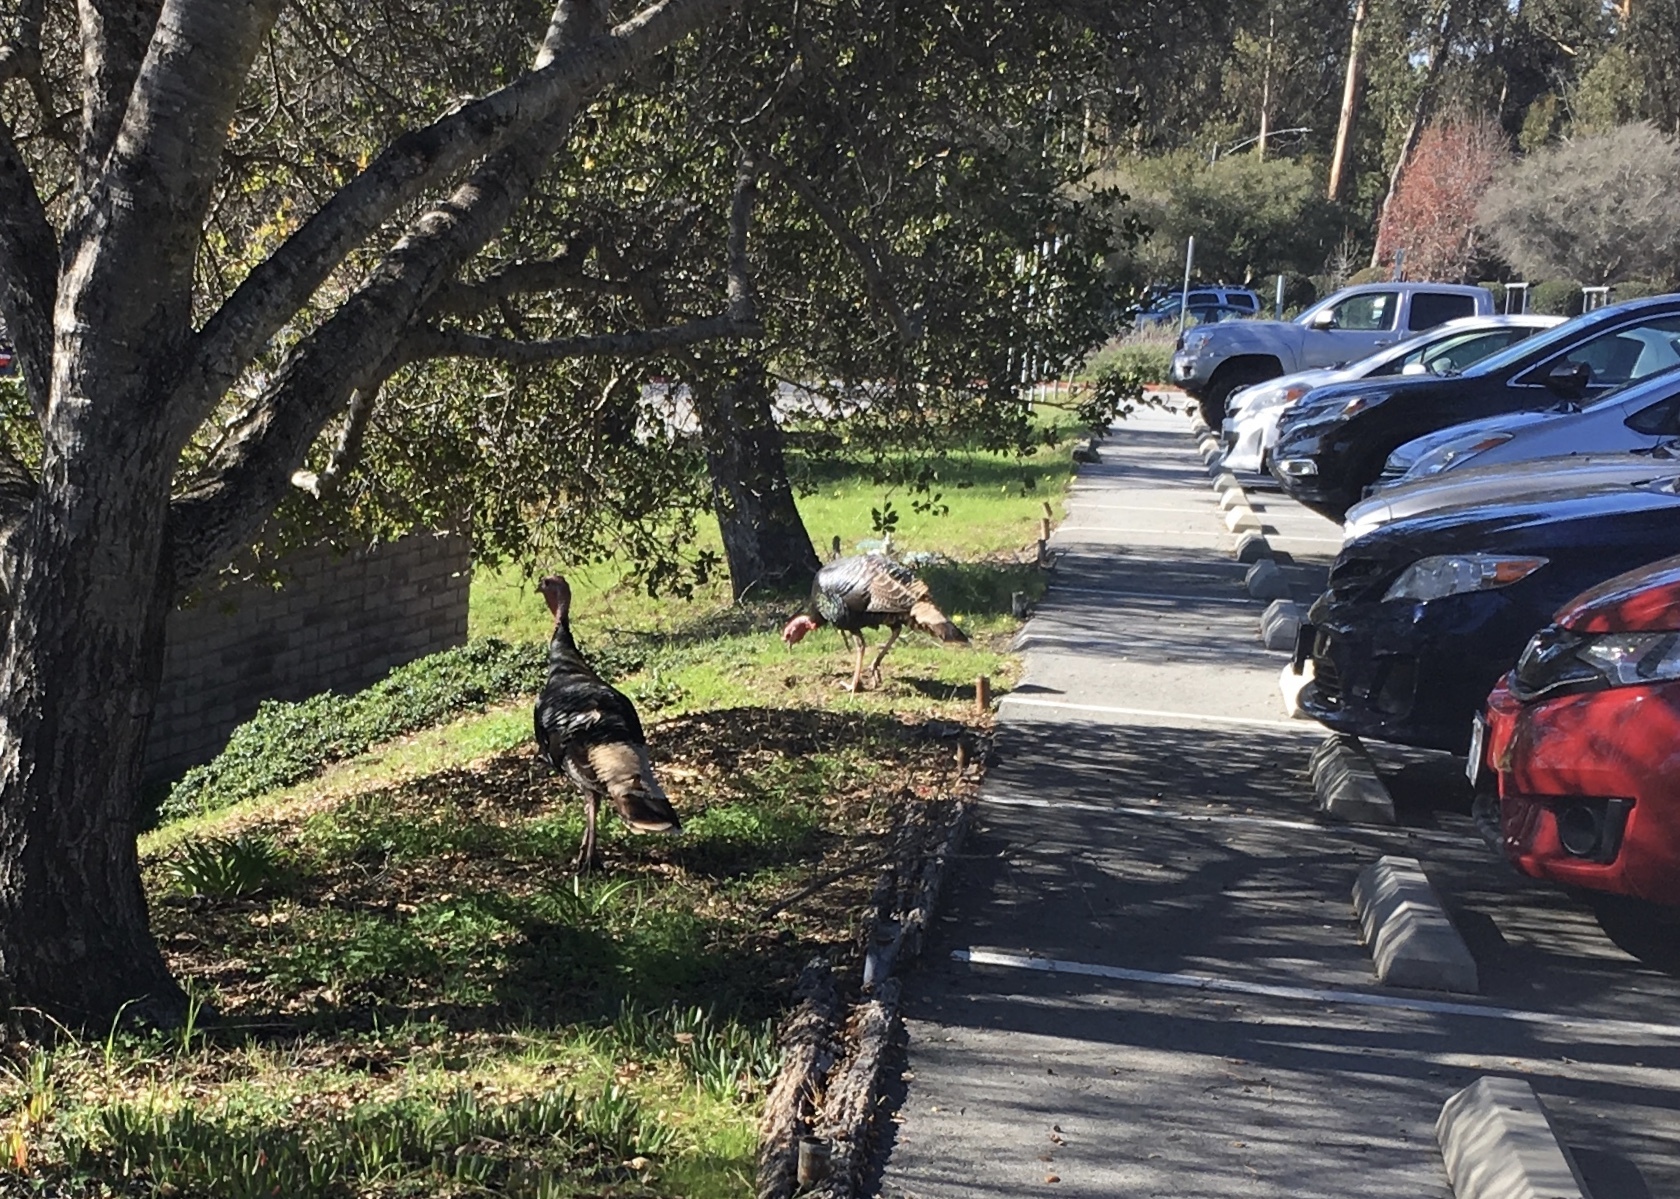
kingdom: Animalia
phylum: Chordata
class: Aves
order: Galliformes
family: Phasianidae
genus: Meleagris
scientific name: Meleagris gallopavo
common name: Wild turkey
